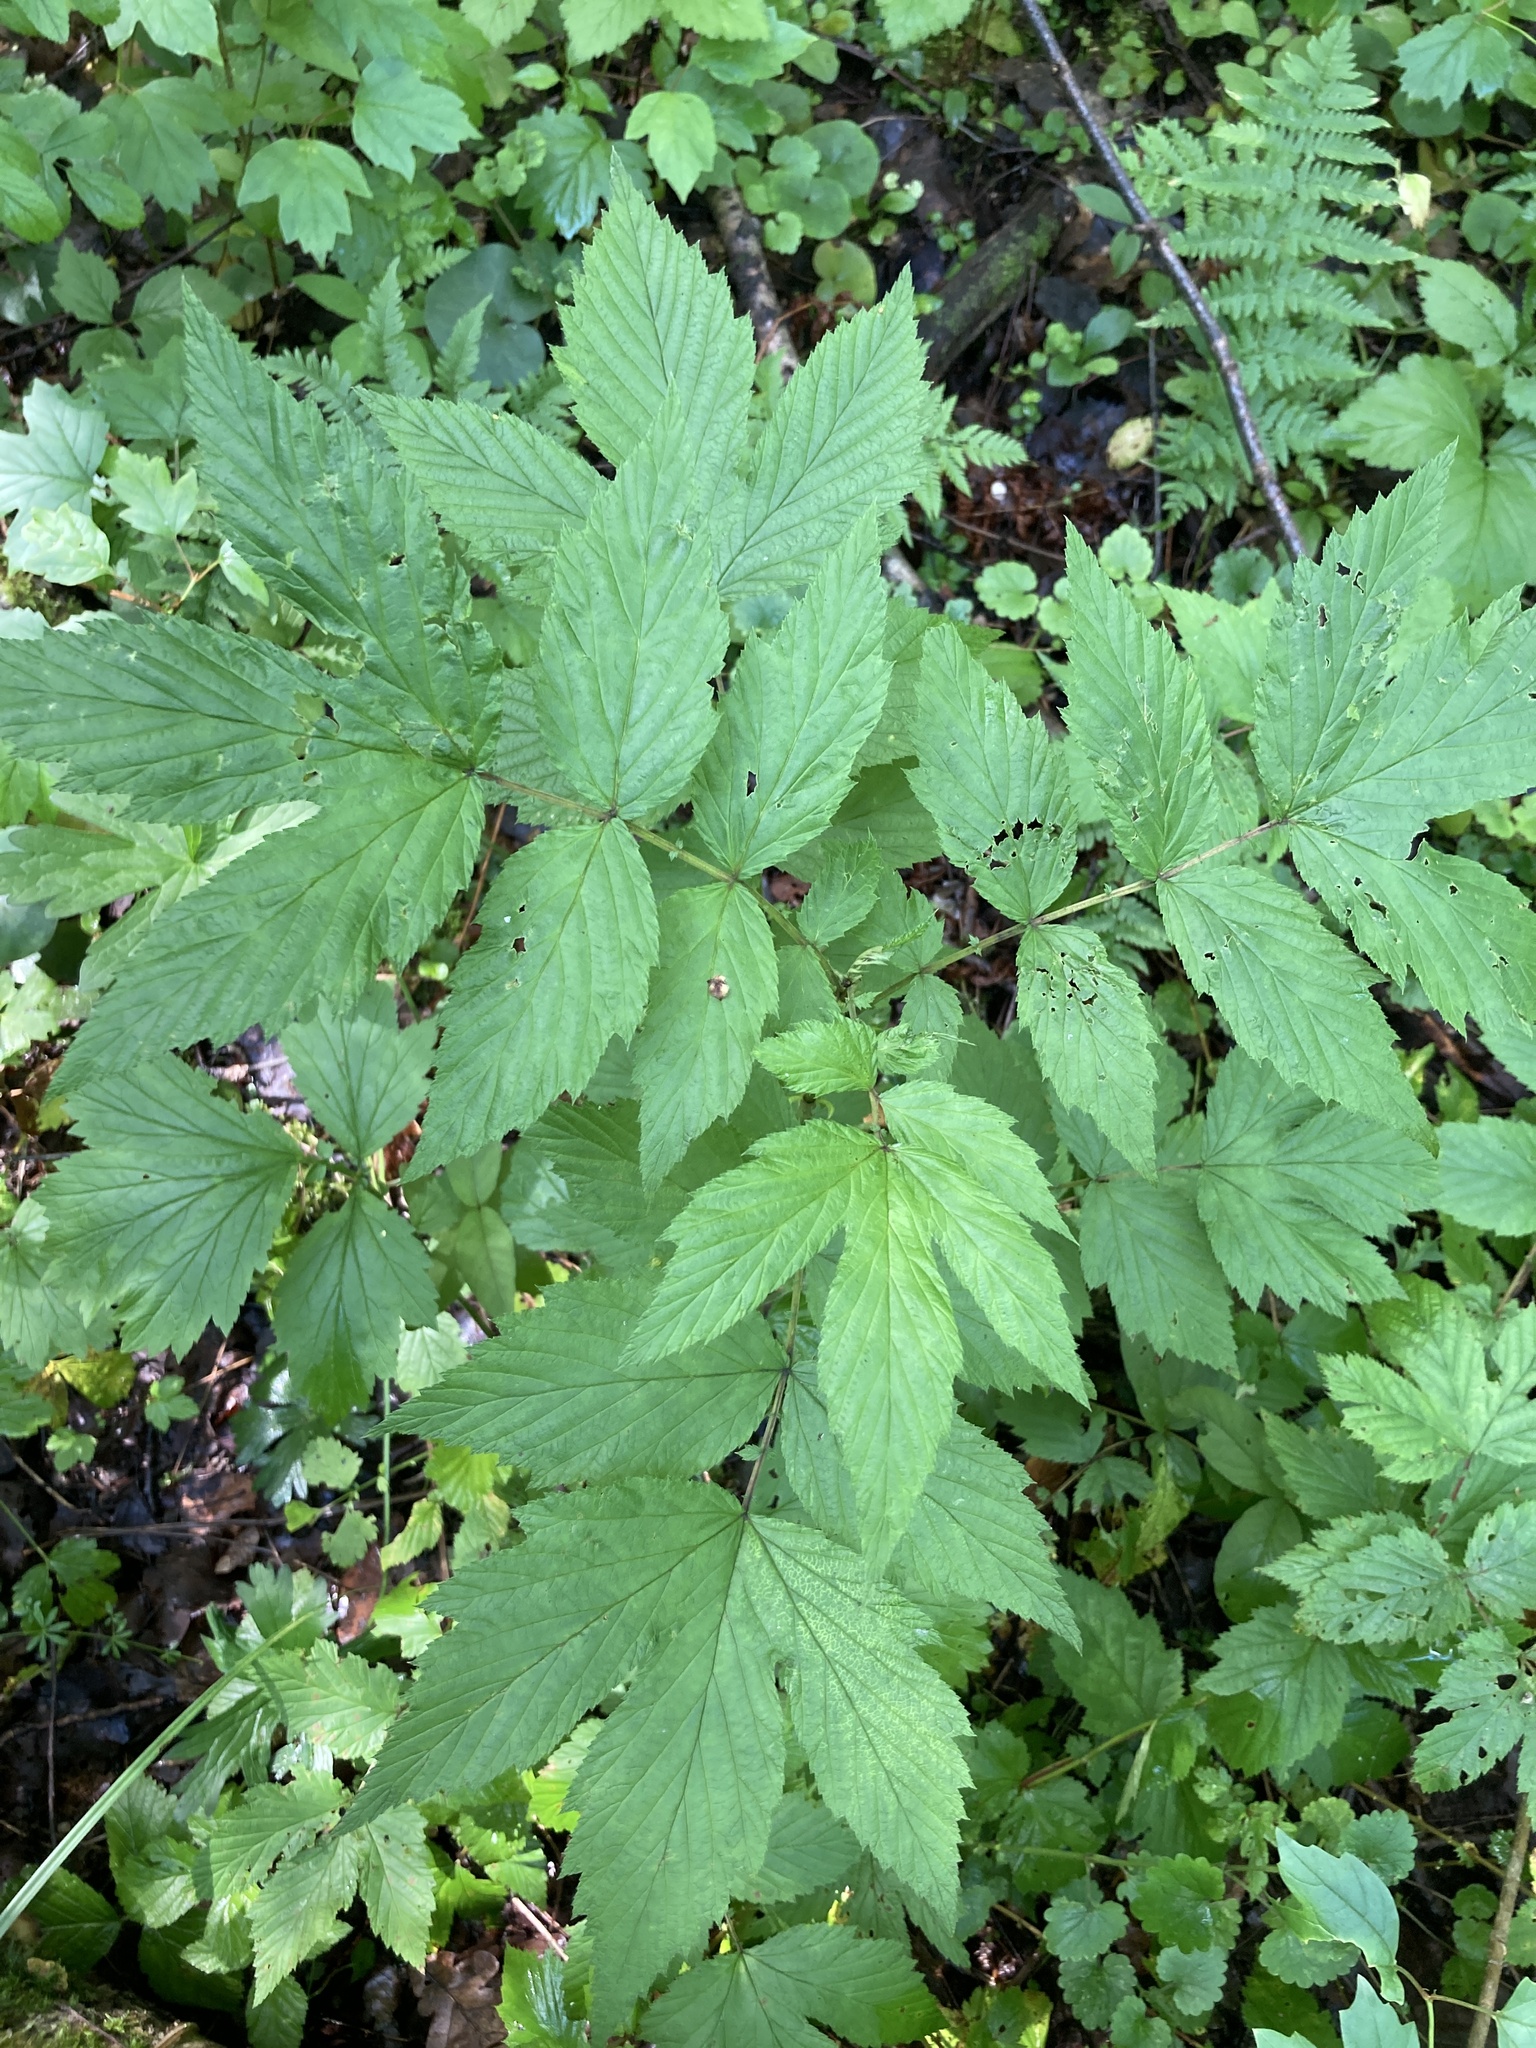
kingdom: Plantae
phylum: Tracheophyta
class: Magnoliopsida
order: Rosales
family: Rosaceae
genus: Filipendula
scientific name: Filipendula ulmaria
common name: Meadowsweet
